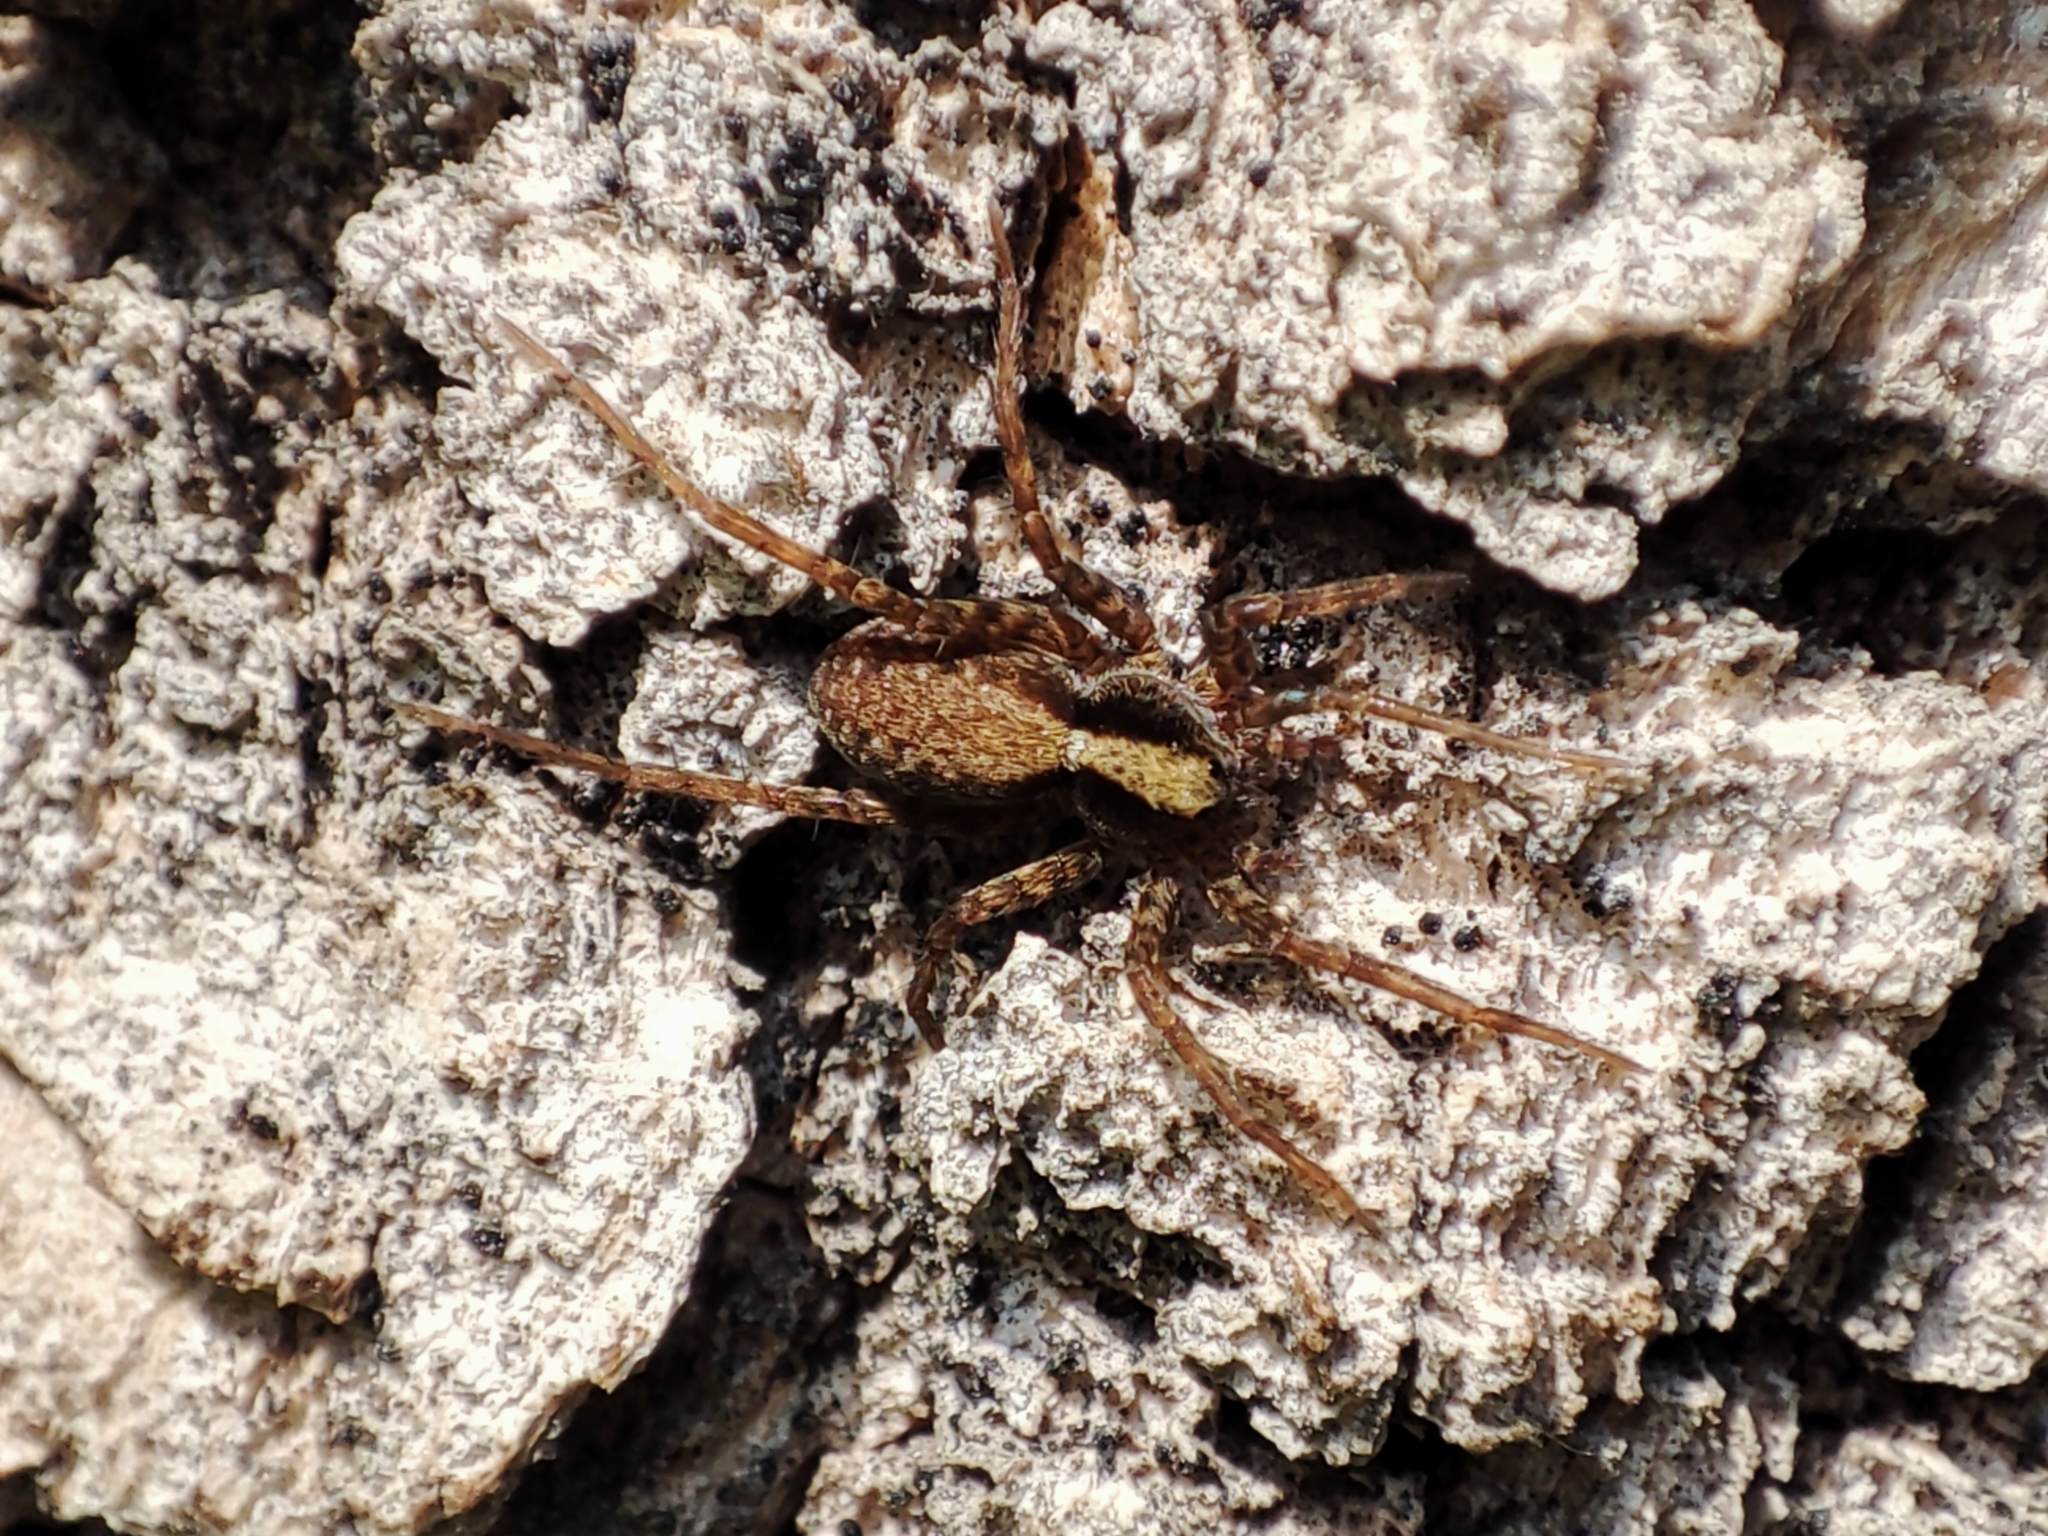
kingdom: Animalia
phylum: Arthropoda
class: Arachnida
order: Araneae
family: Lycosidae
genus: Pardosa
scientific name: Pardosa
